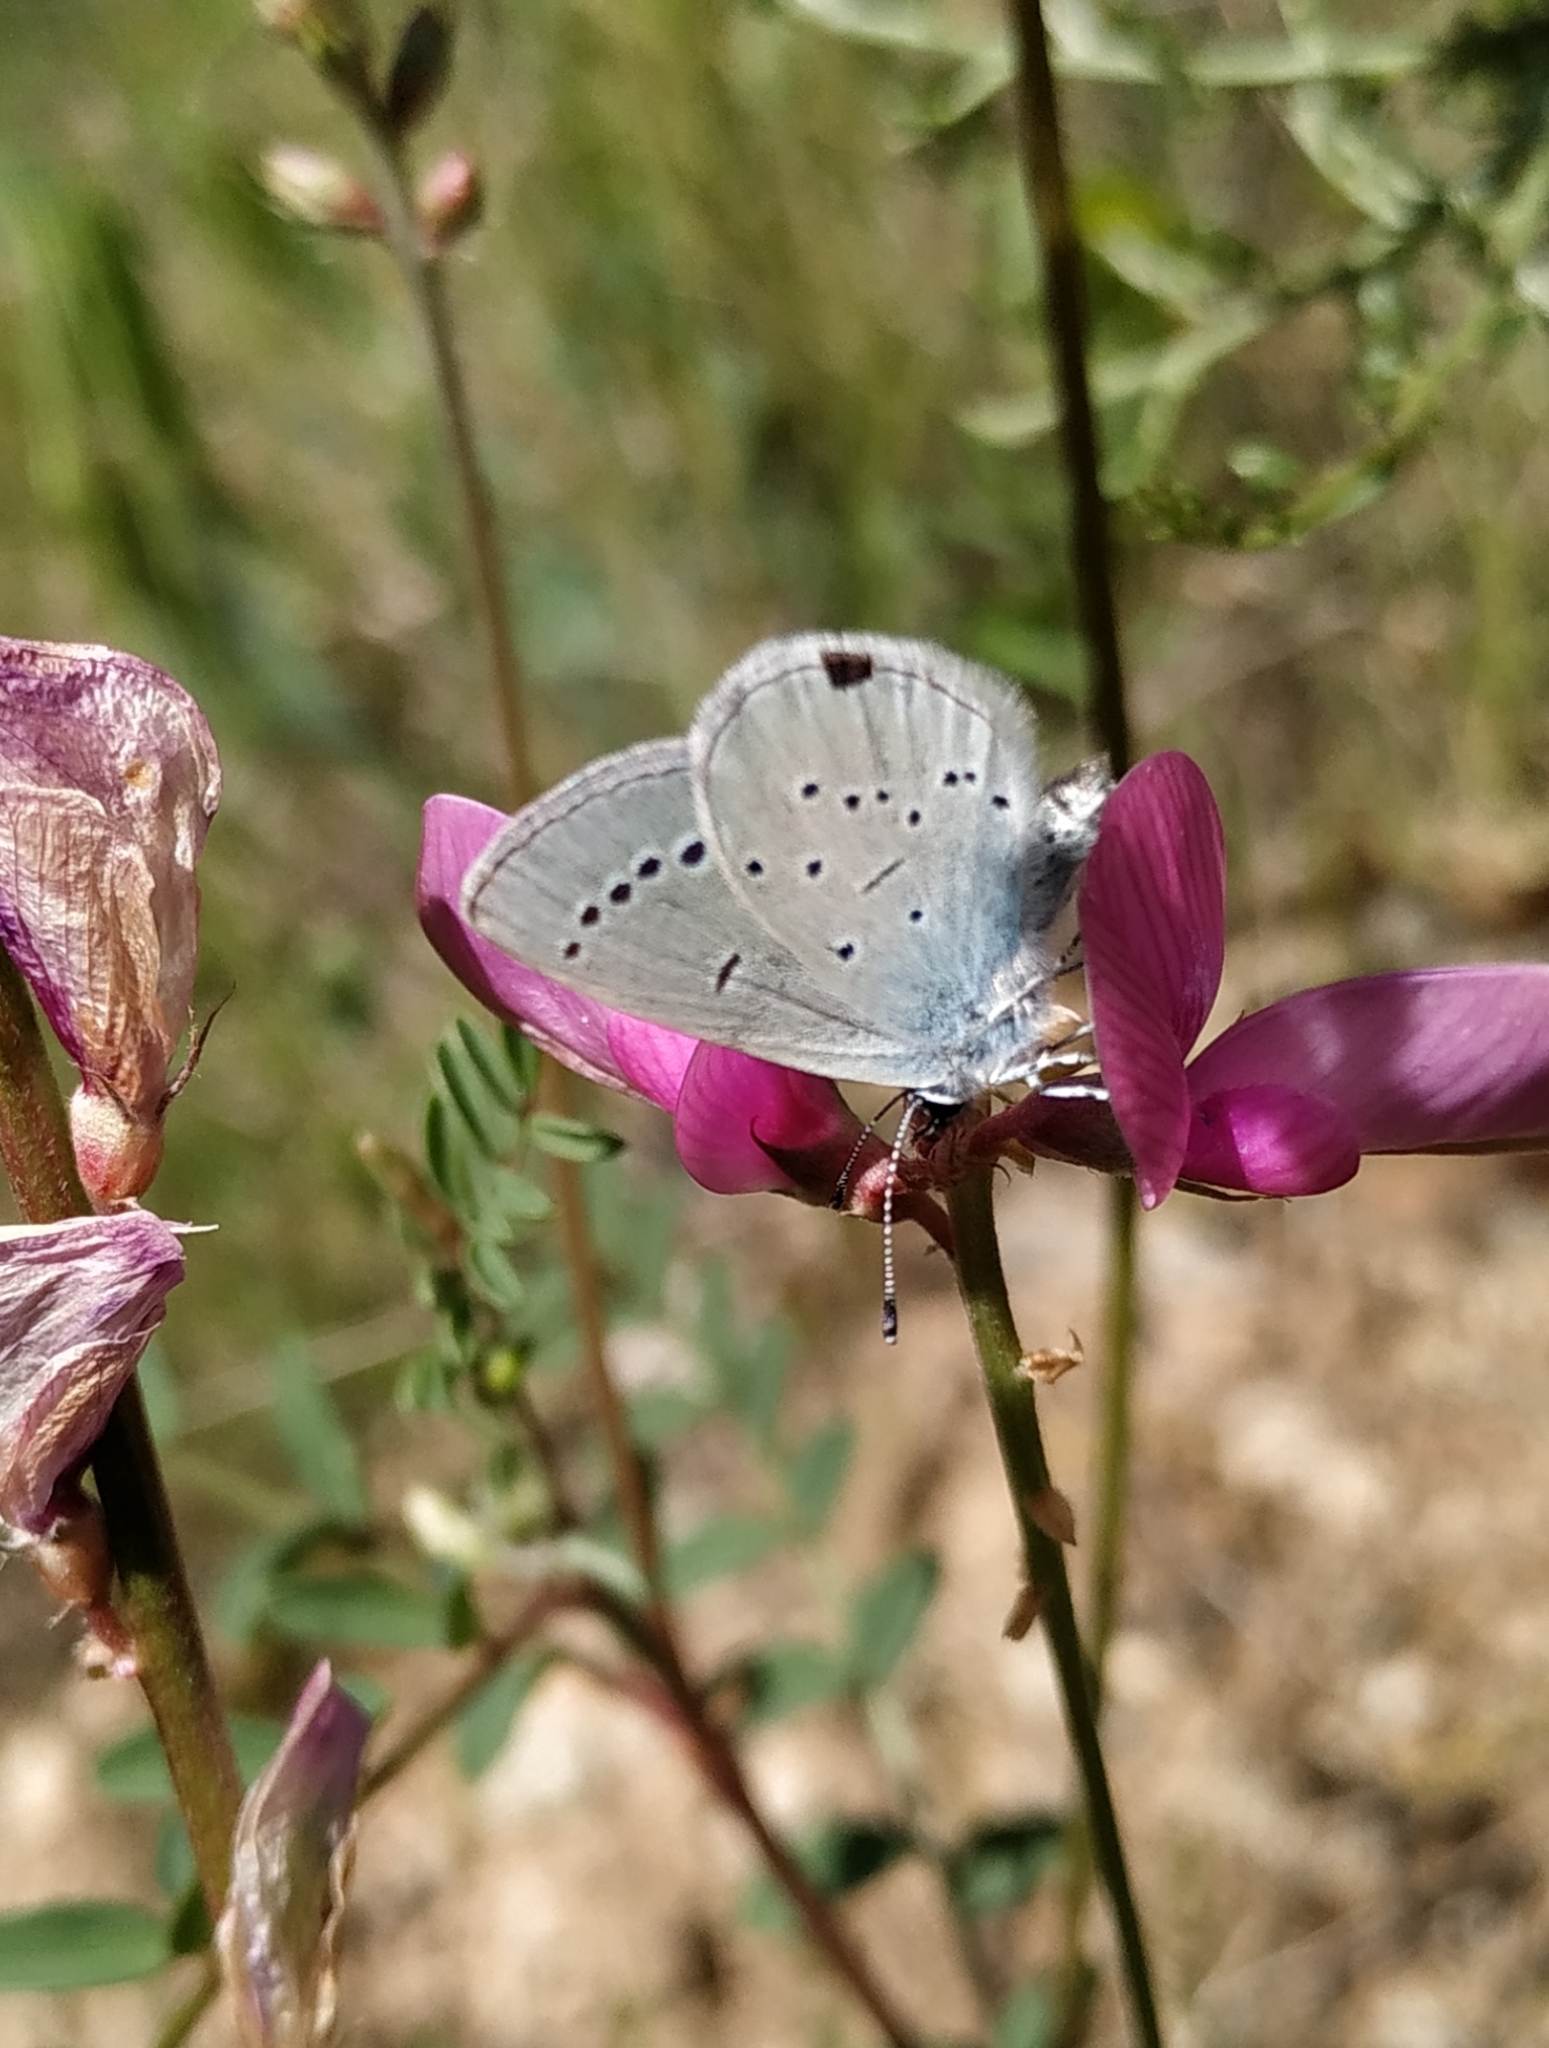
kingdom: Animalia
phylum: Arthropoda
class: Insecta
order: Lepidoptera
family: Lycaenidae
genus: Everes
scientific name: Everes sebrus
